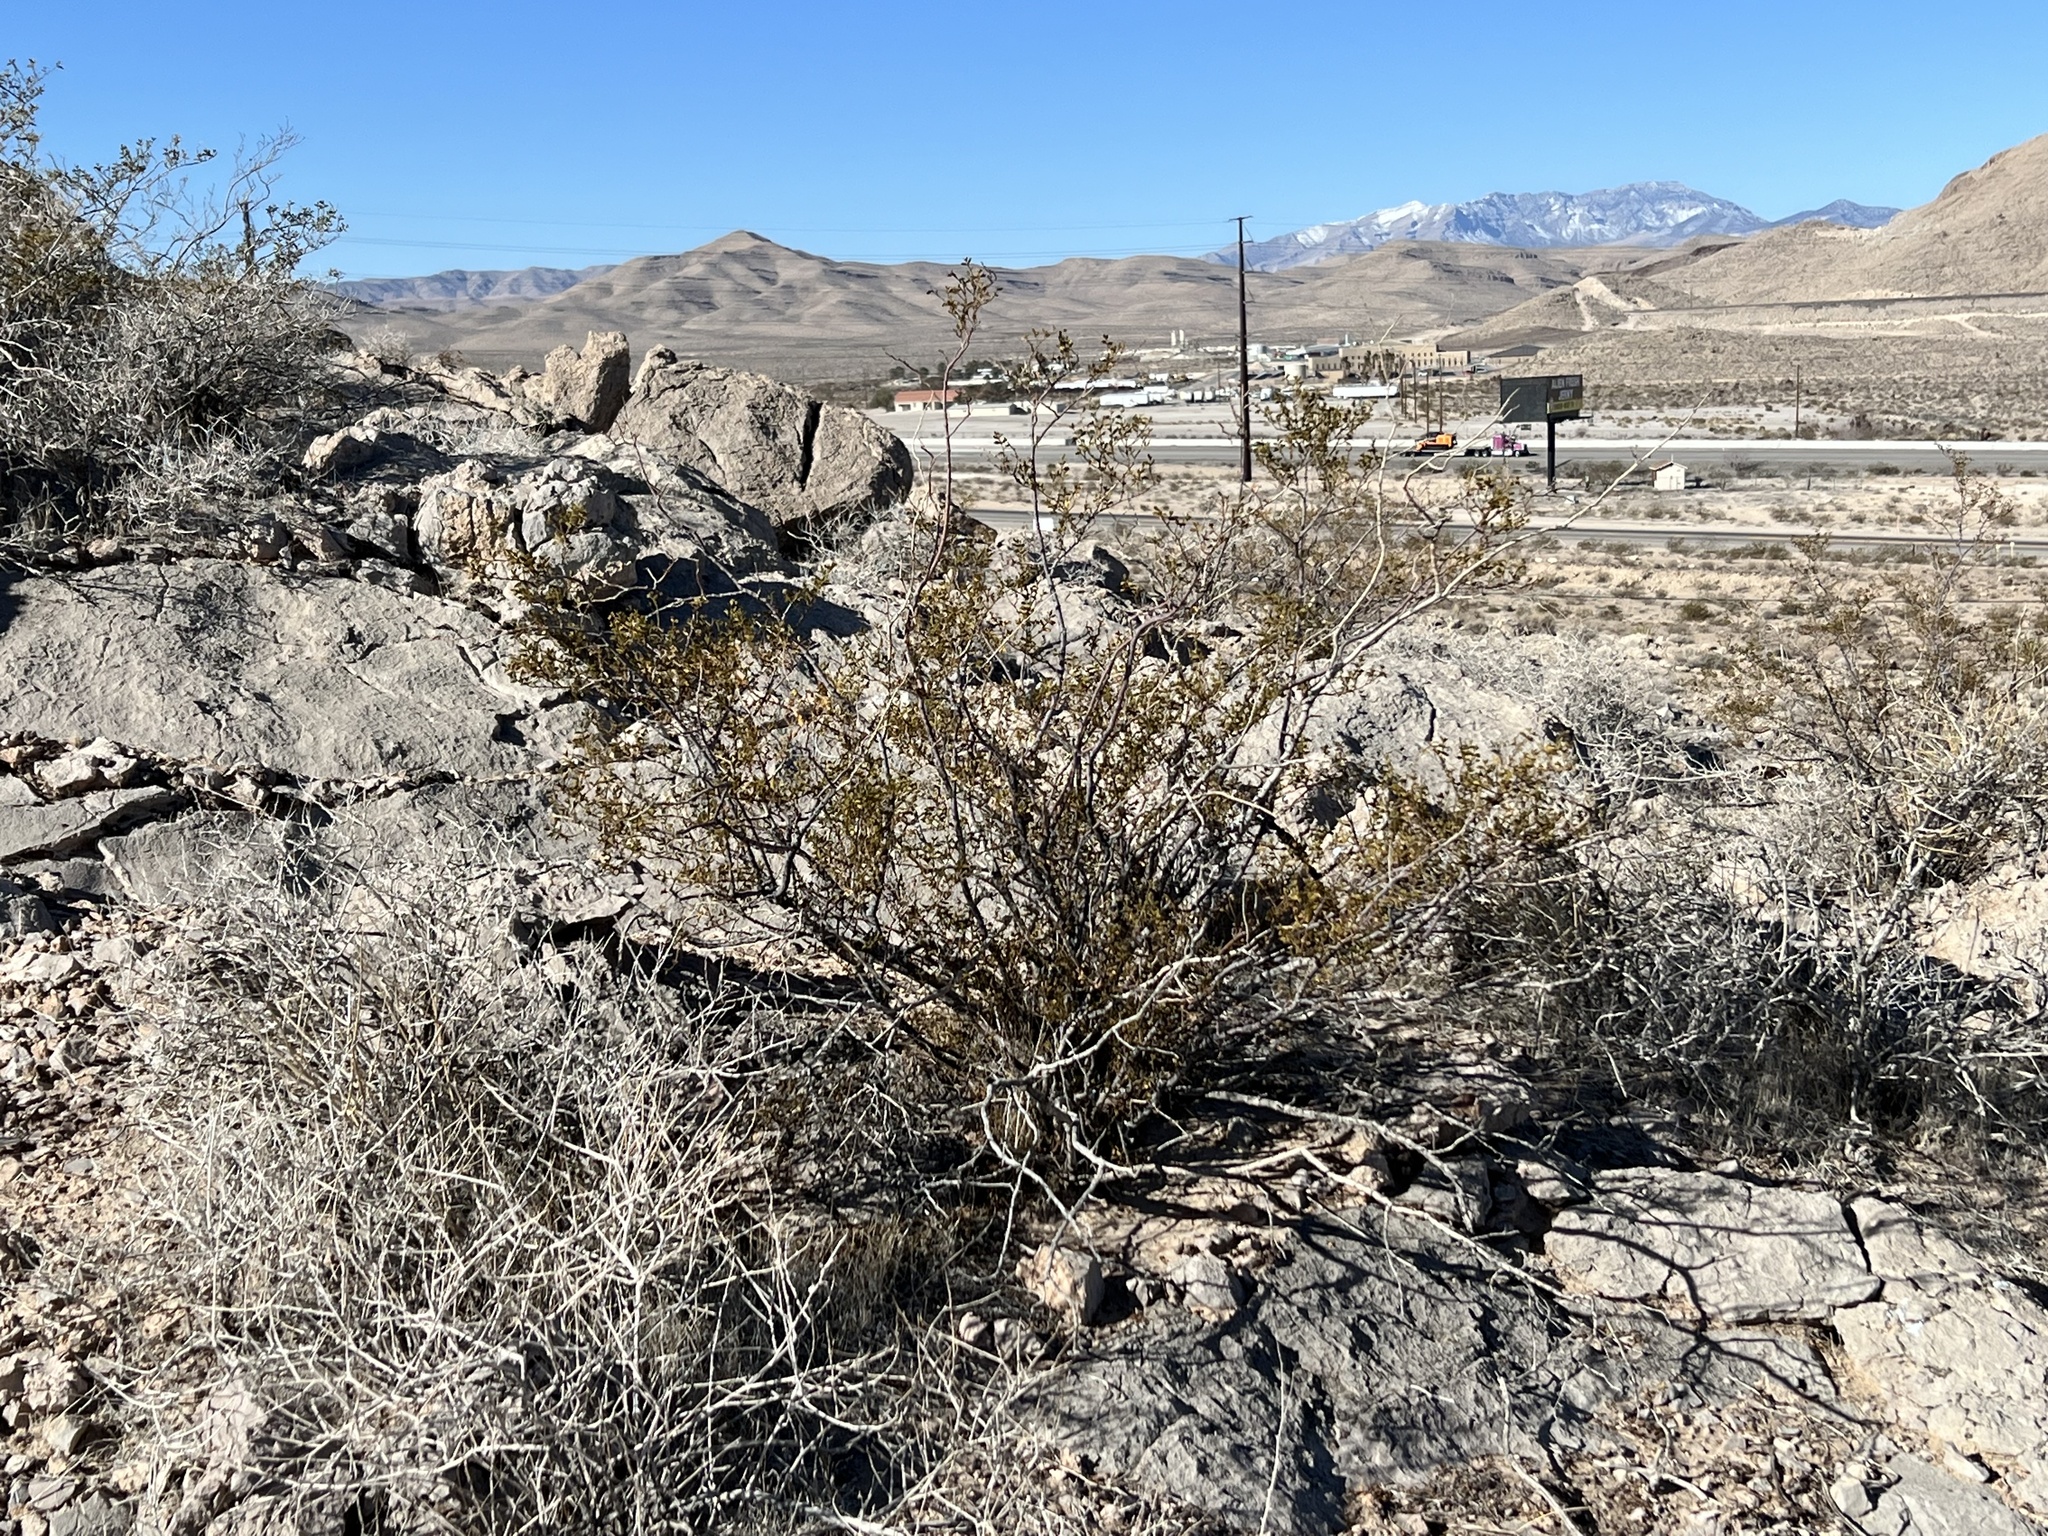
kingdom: Plantae
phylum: Tracheophyta
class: Magnoliopsida
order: Zygophyllales
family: Zygophyllaceae
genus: Larrea
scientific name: Larrea tridentata
